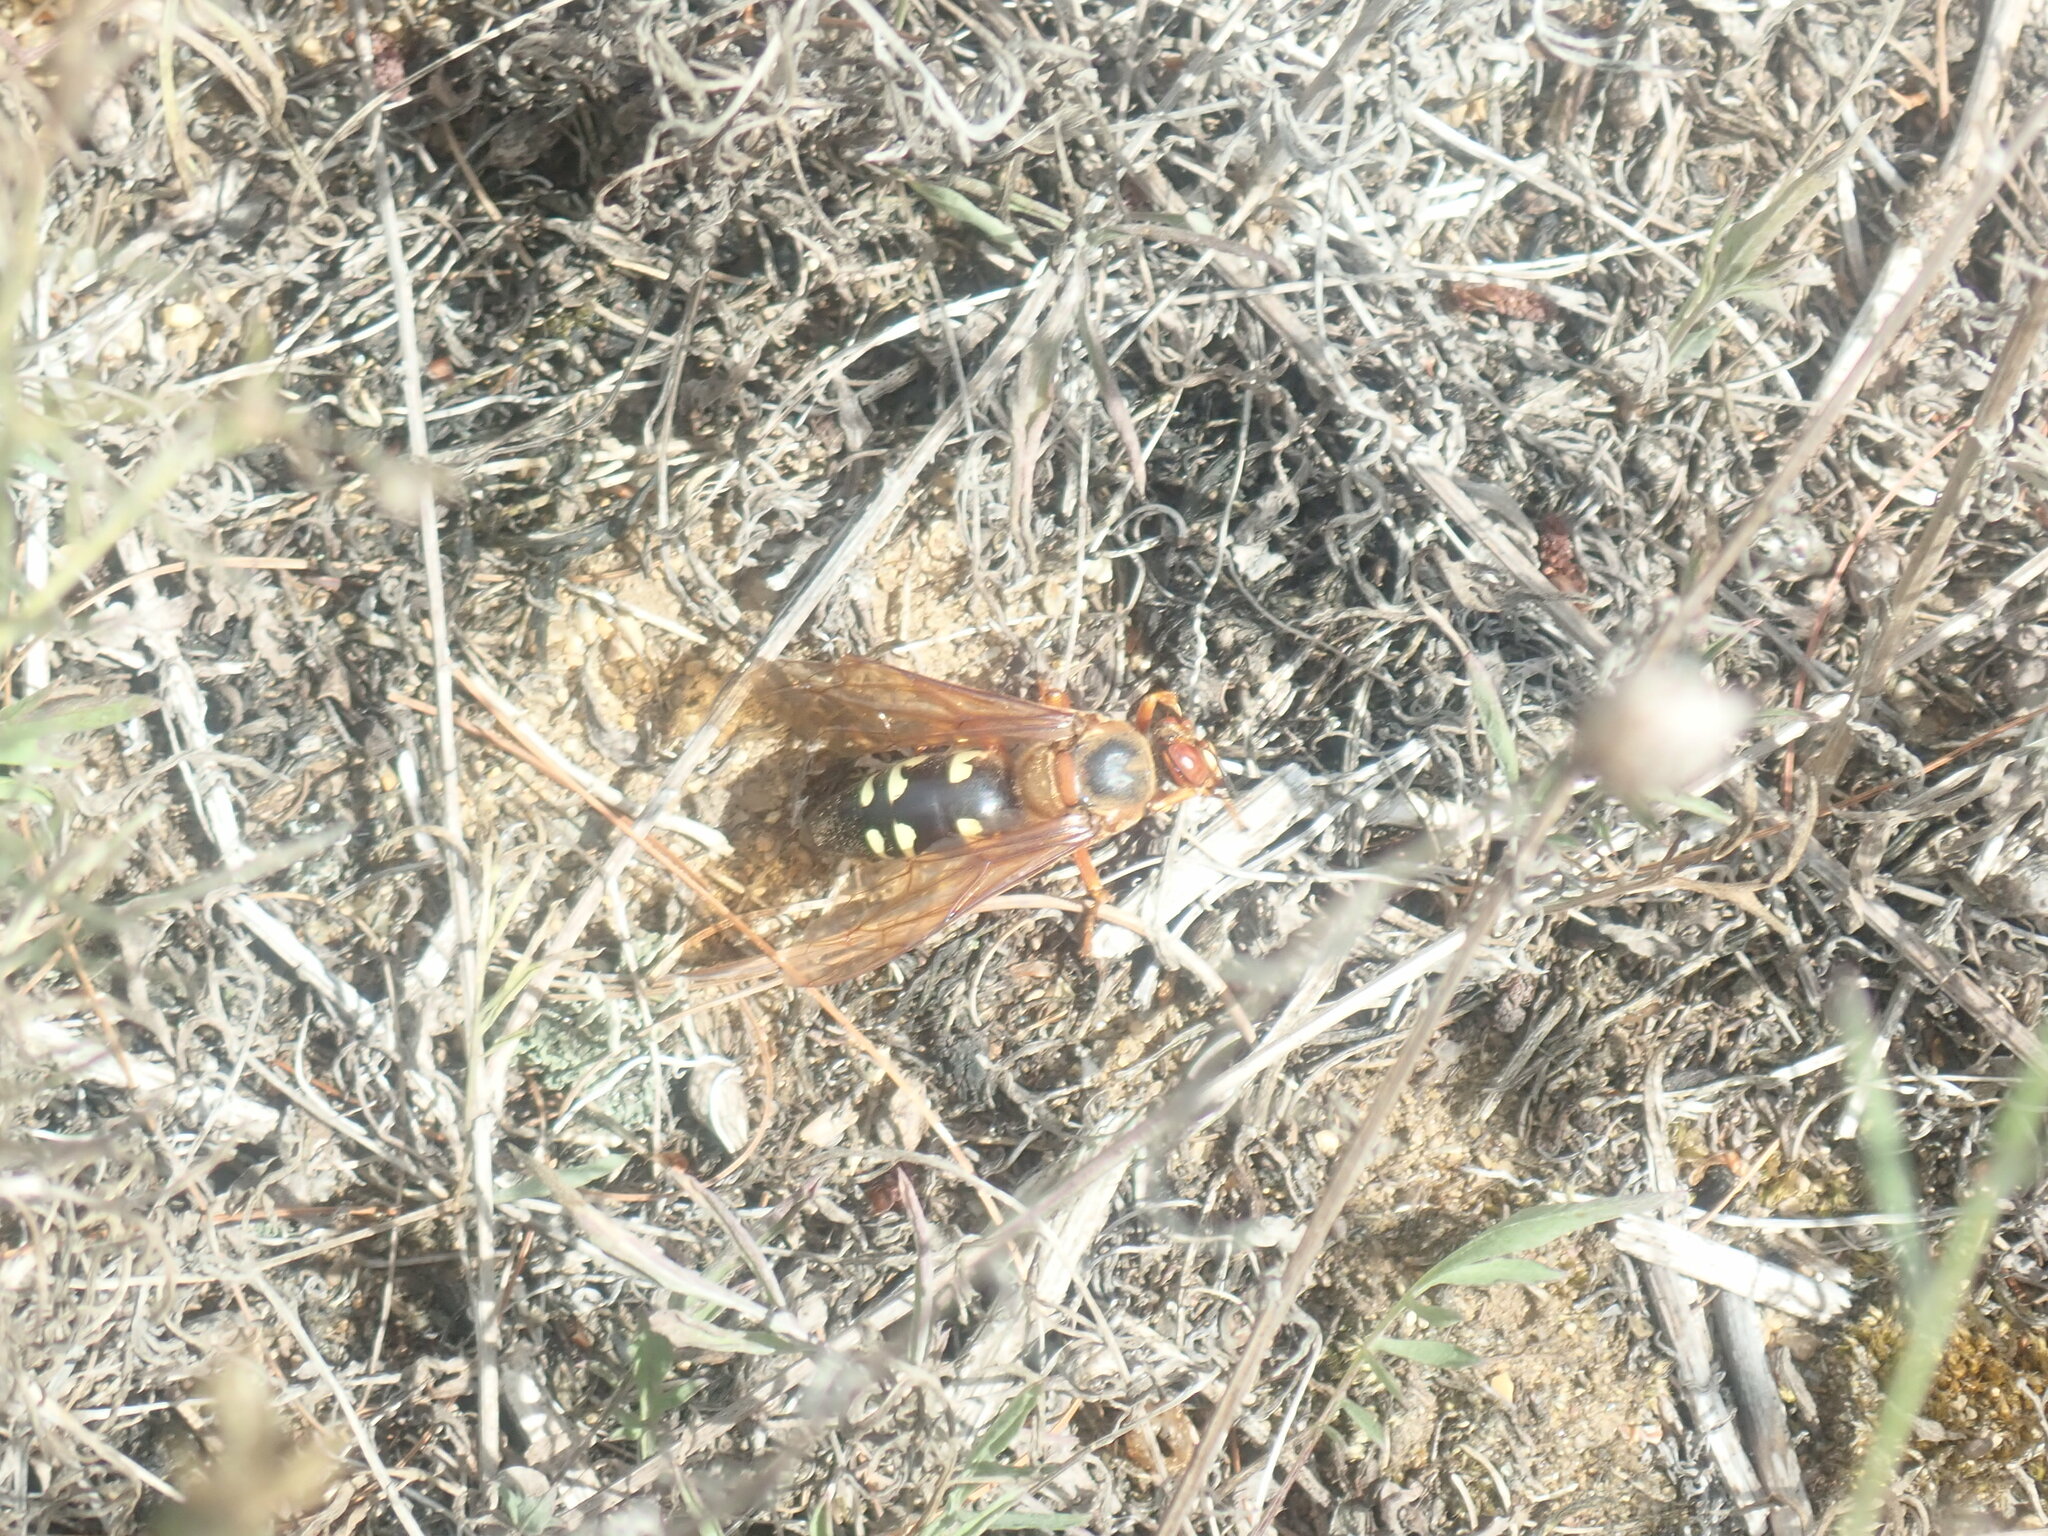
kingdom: Animalia
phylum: Arthropoda
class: Insecta
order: Hymenoptera
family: Crabronidae
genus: Sphecius
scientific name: Sphecius speciosus
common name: Cicada killer
